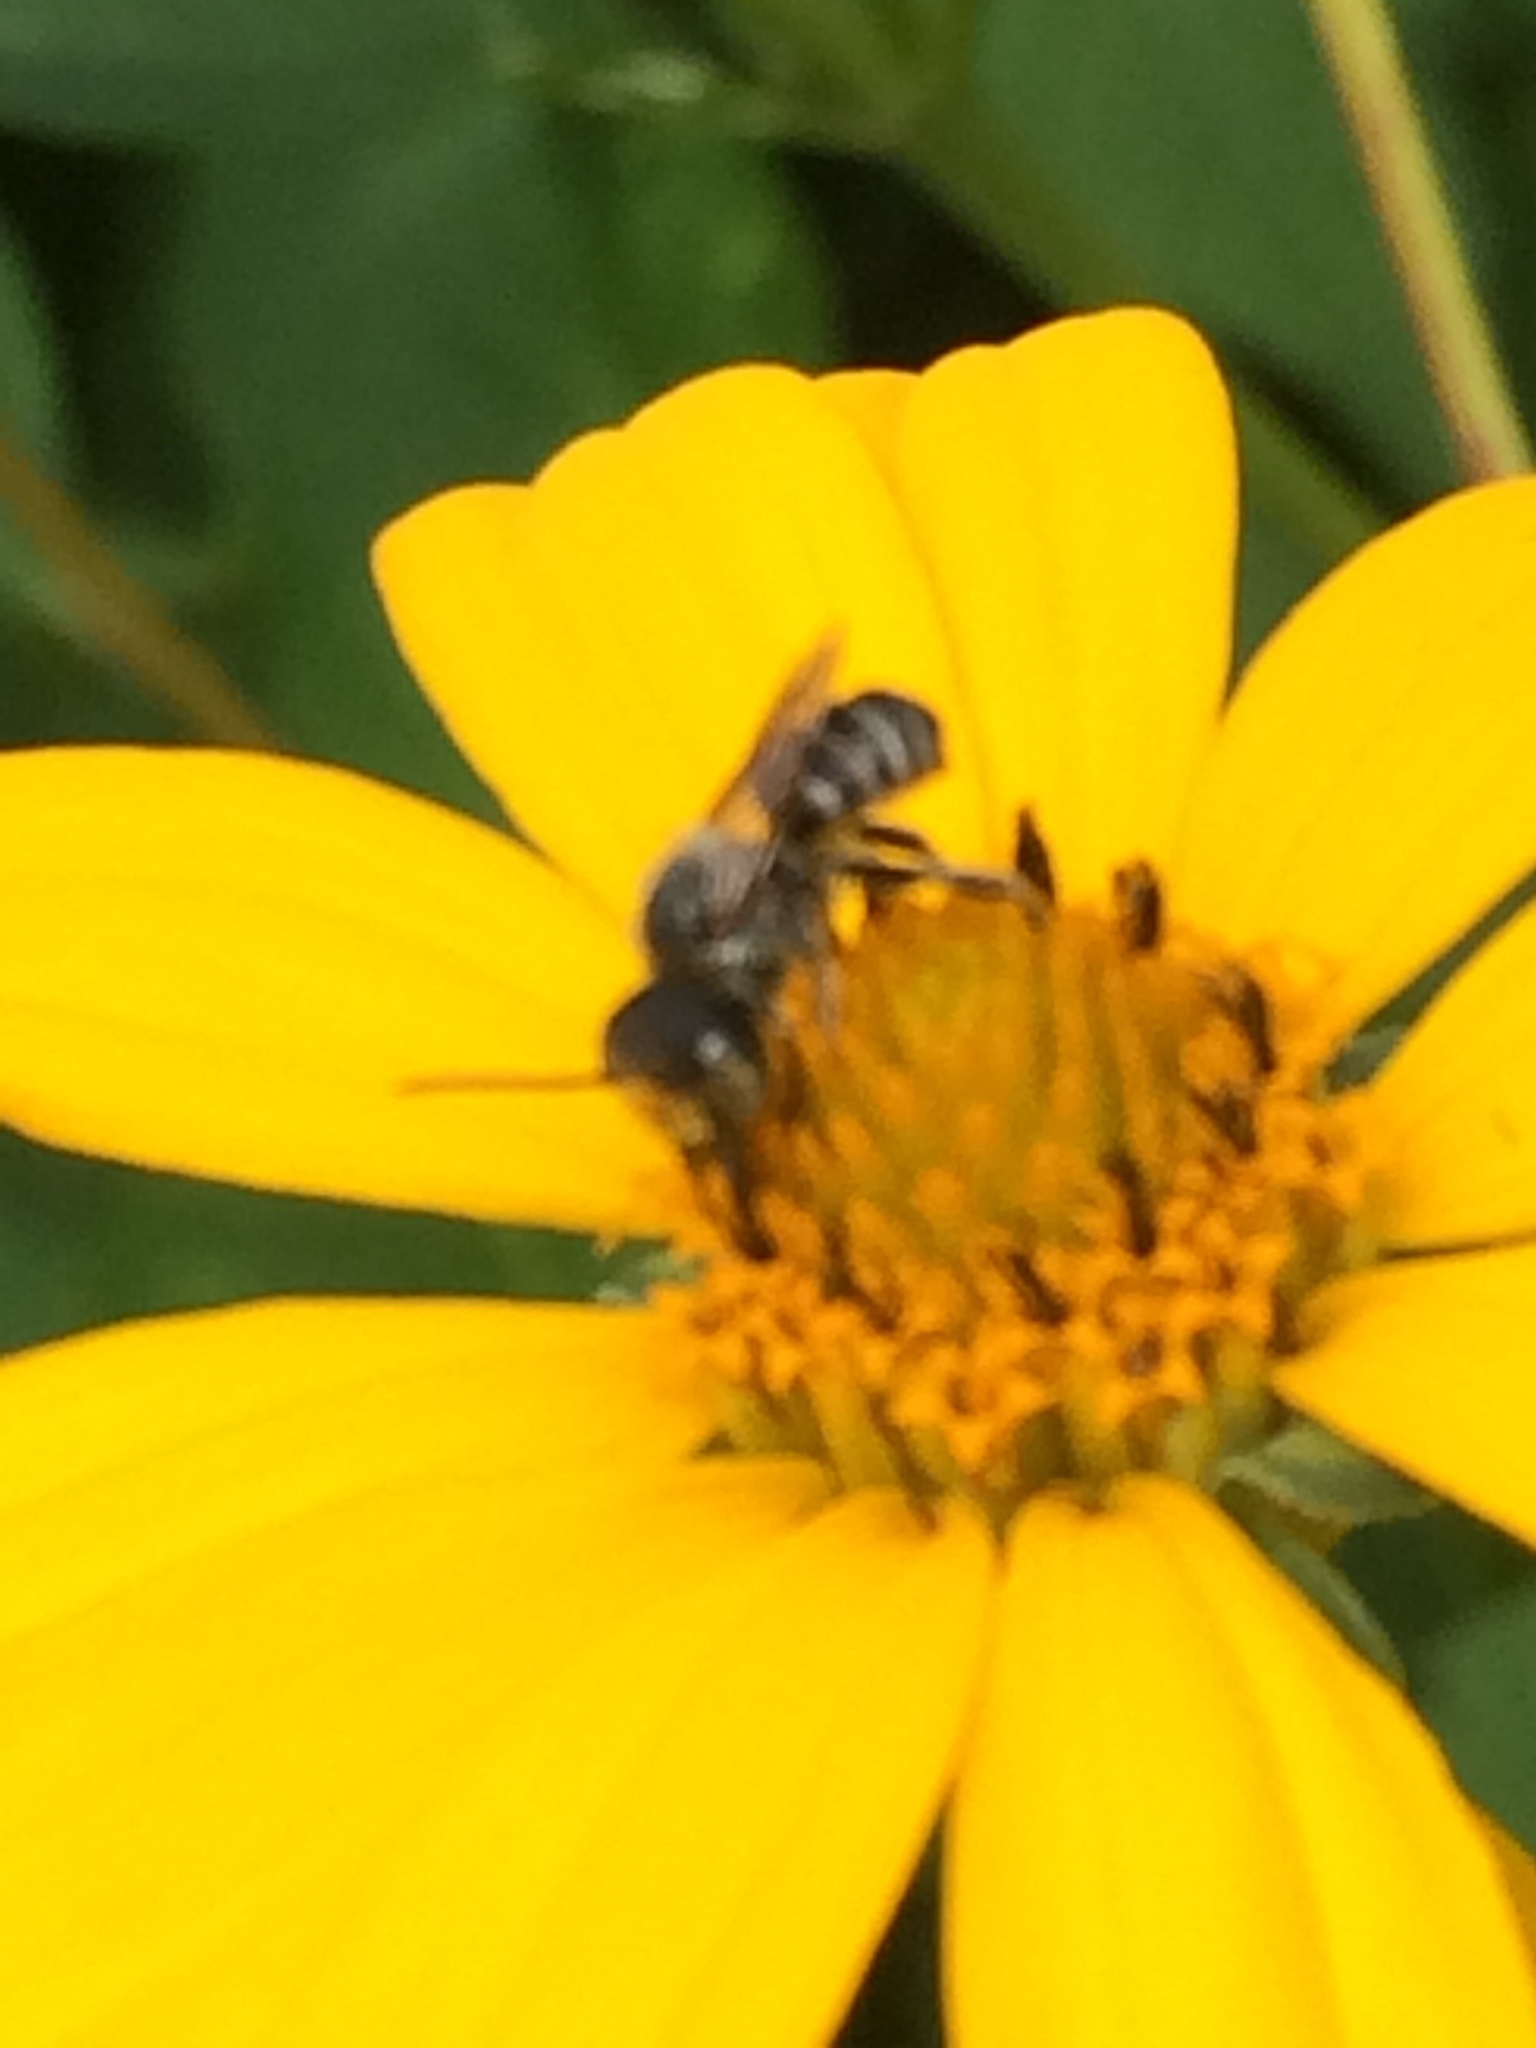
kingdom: Animalia
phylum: Arthropoda
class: Insecta
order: Hymenoptera
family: Megachilidae
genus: Megachile
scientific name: Megachile rotundata
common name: Alfalfa leafcutting bee
